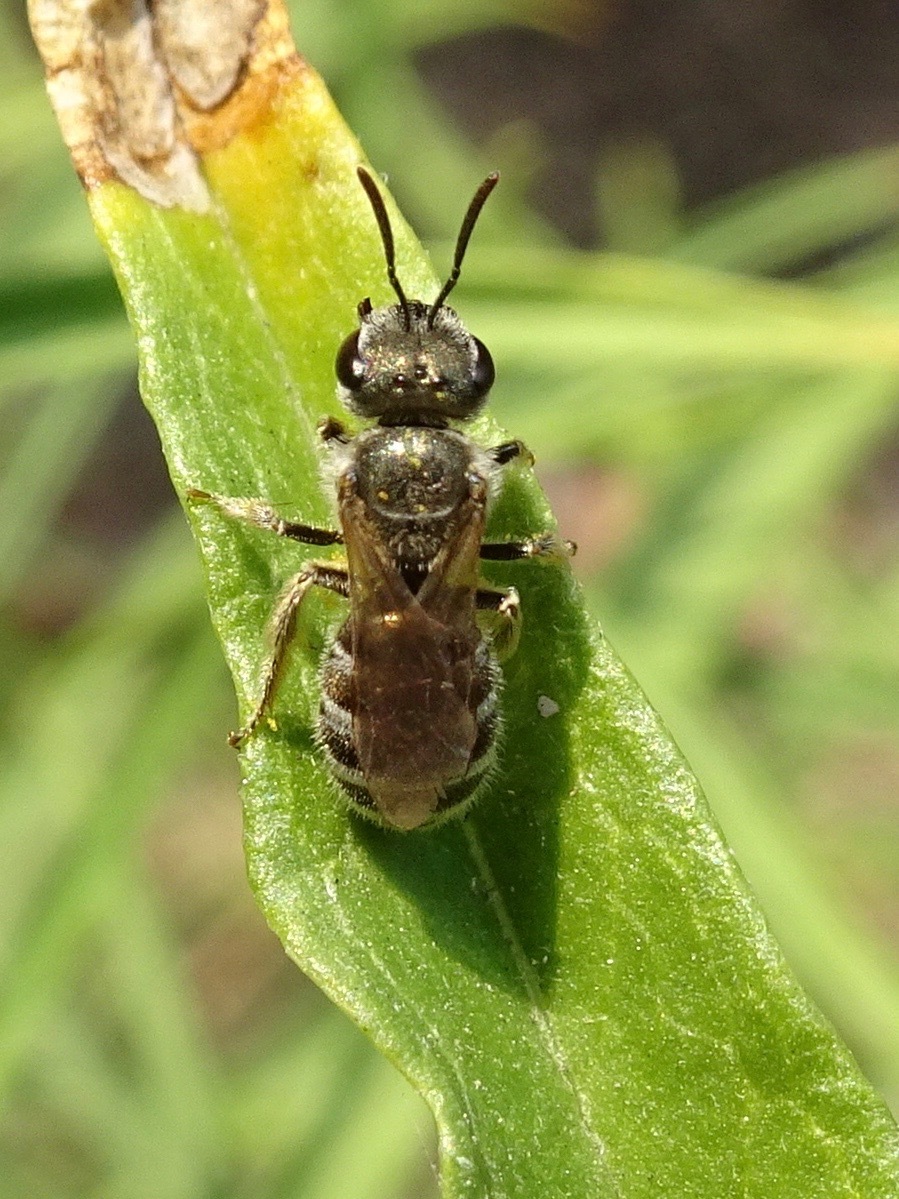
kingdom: Animalia
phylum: Arthropoda
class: Insecta
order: Hymenoptera
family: Halictidae
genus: Halictus
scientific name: Halictus tripartitus
